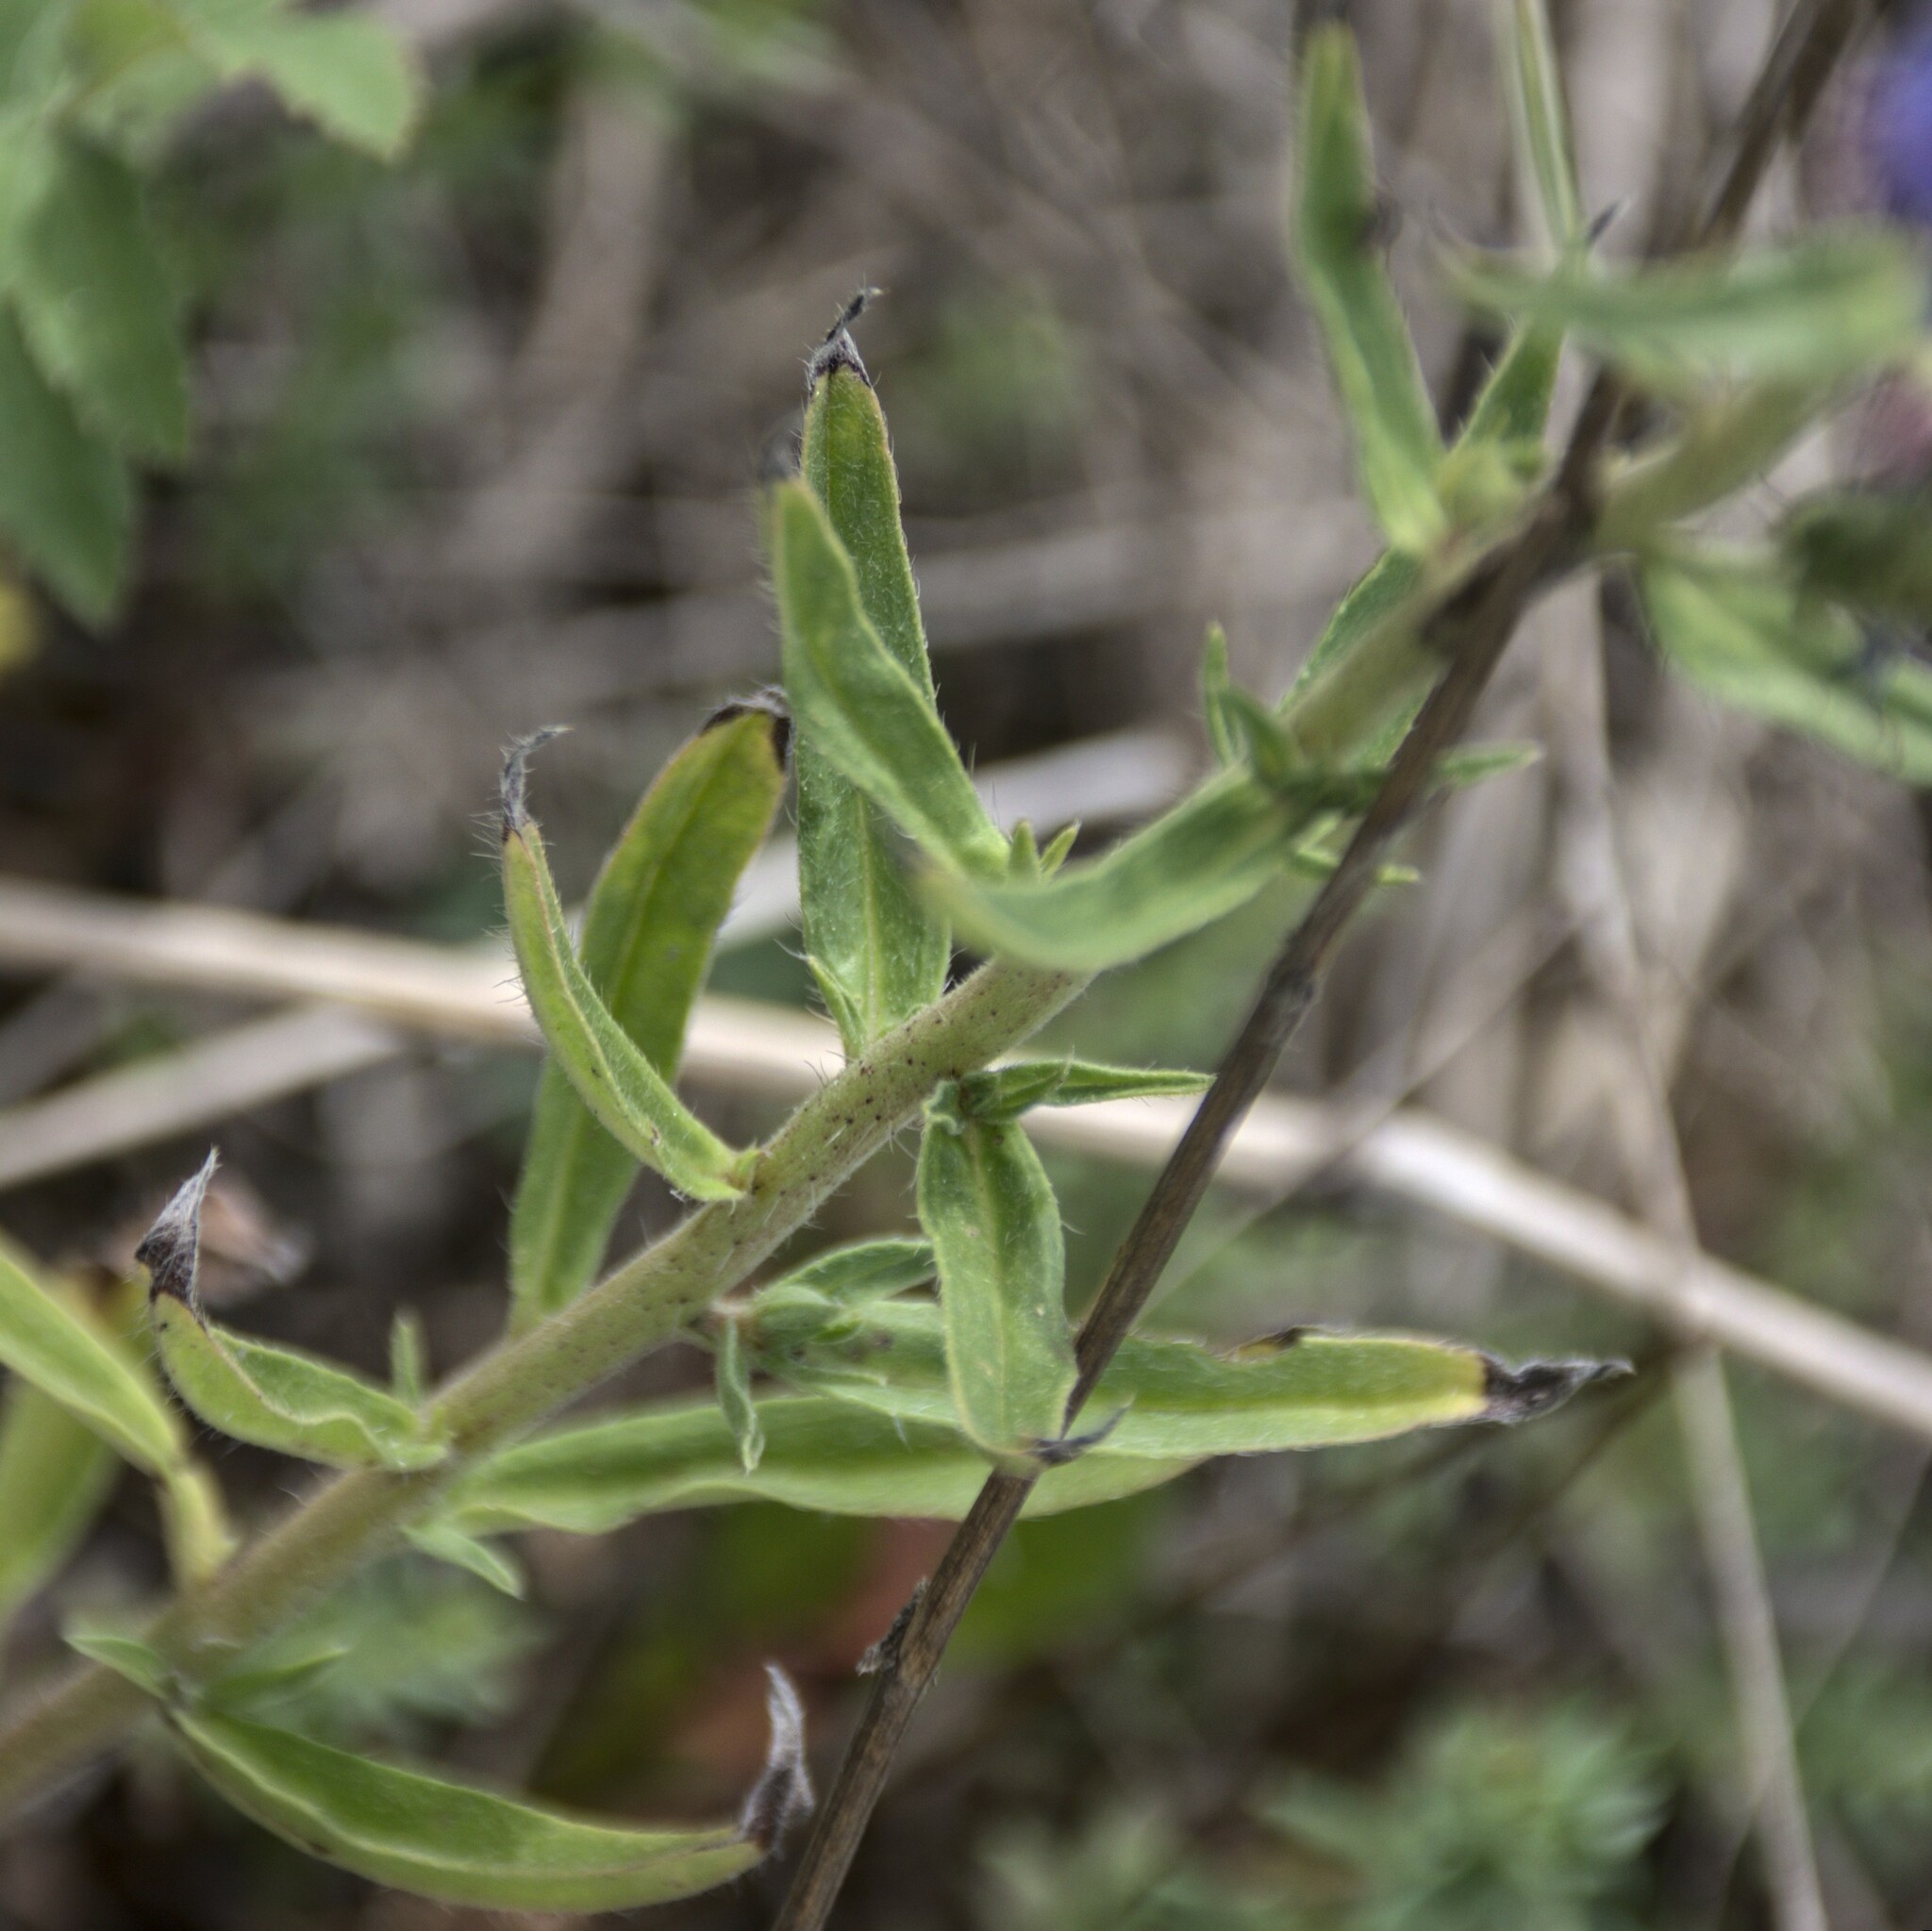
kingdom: Plantae
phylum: Tracheophyta
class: Magnoliopsida
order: Boraginales
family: Boraginaceae
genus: Echium
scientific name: Echium vulgare
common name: Common viper's bugloss
